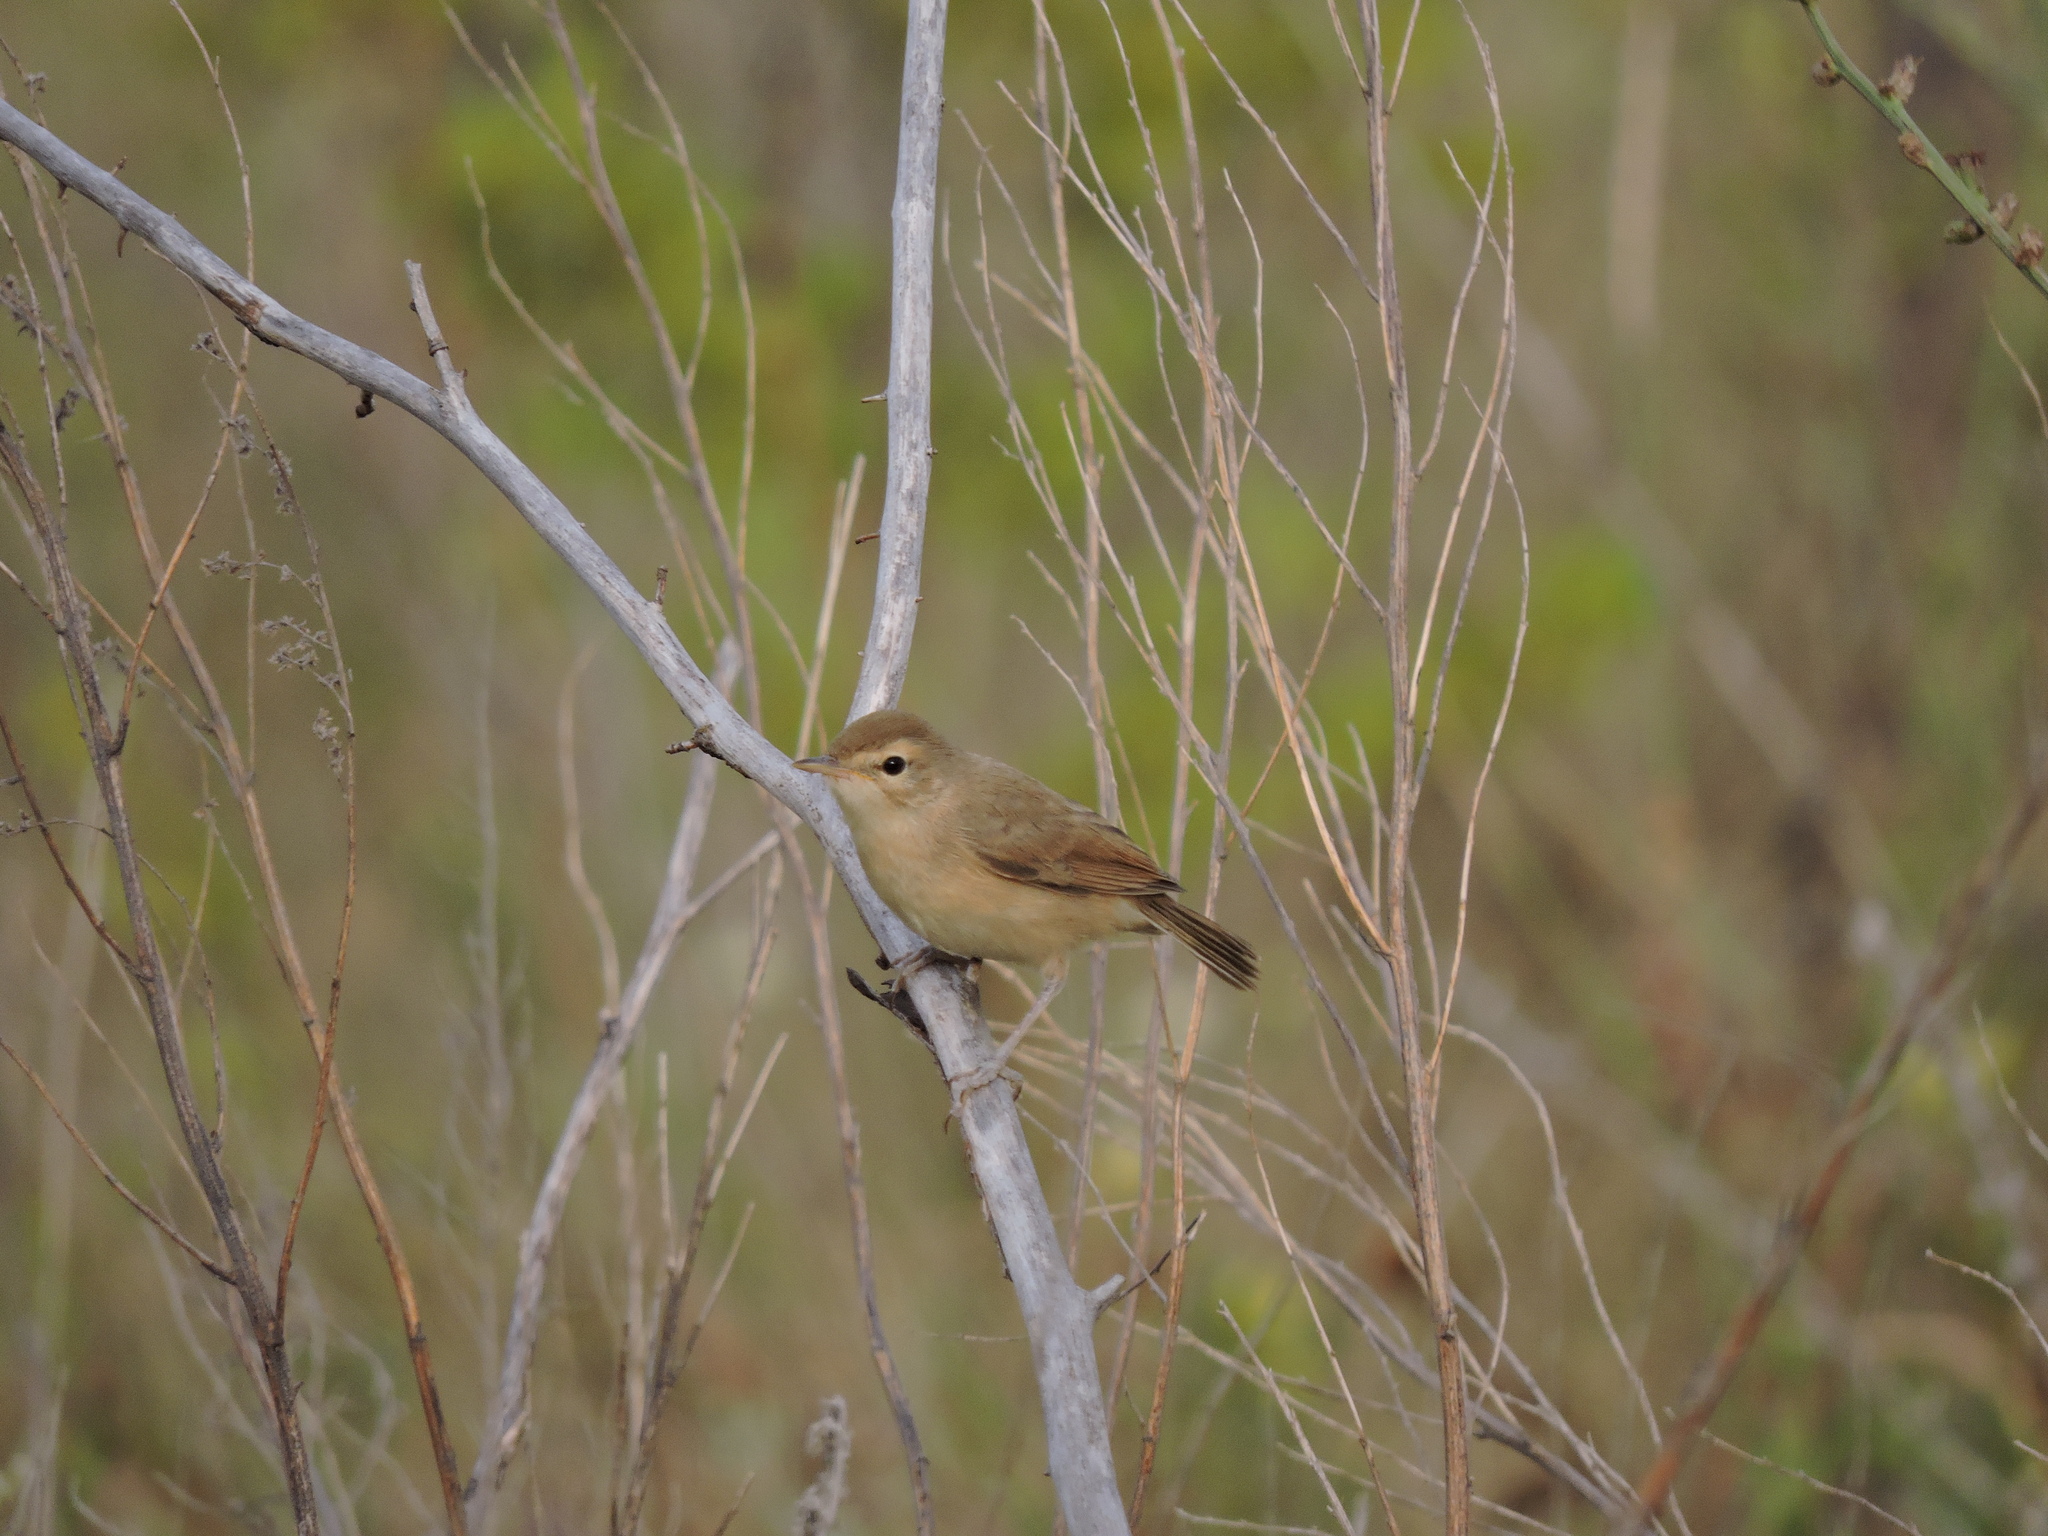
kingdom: Animalia
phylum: Chordata
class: Aves
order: Passeriformes
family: Acrocephalidae
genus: Iduna
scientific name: Iduna caligata
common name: Booted warbler
